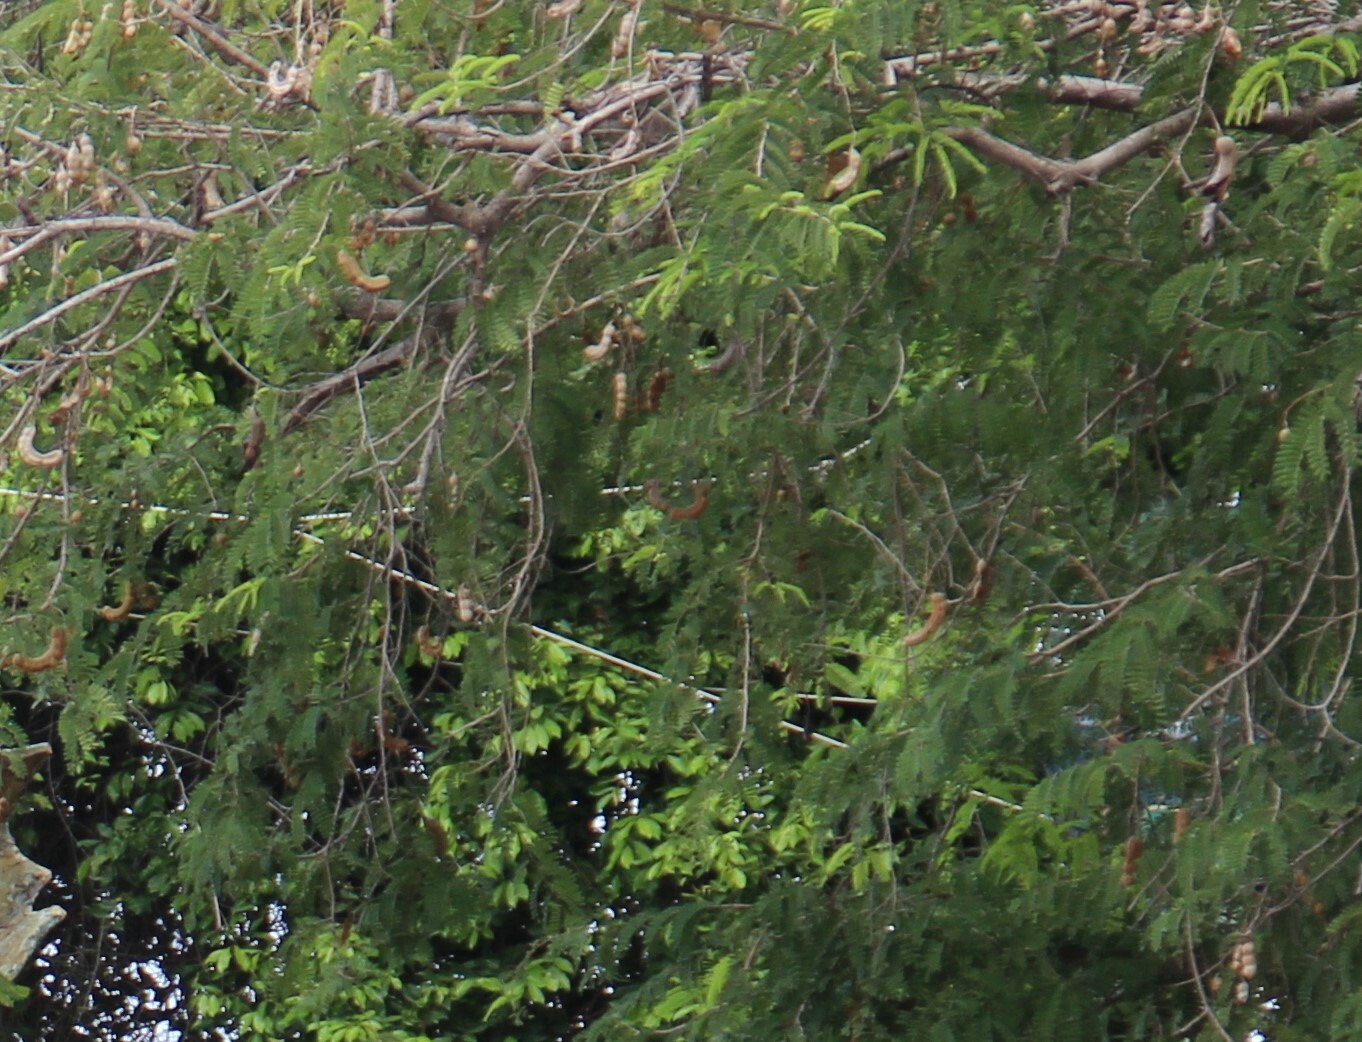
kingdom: Plantae
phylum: Tracheophyta
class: Magnoliopsida
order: Fabales
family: Fabaceae
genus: Tamarindus
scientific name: Tamarindus indica
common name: Tamarind
